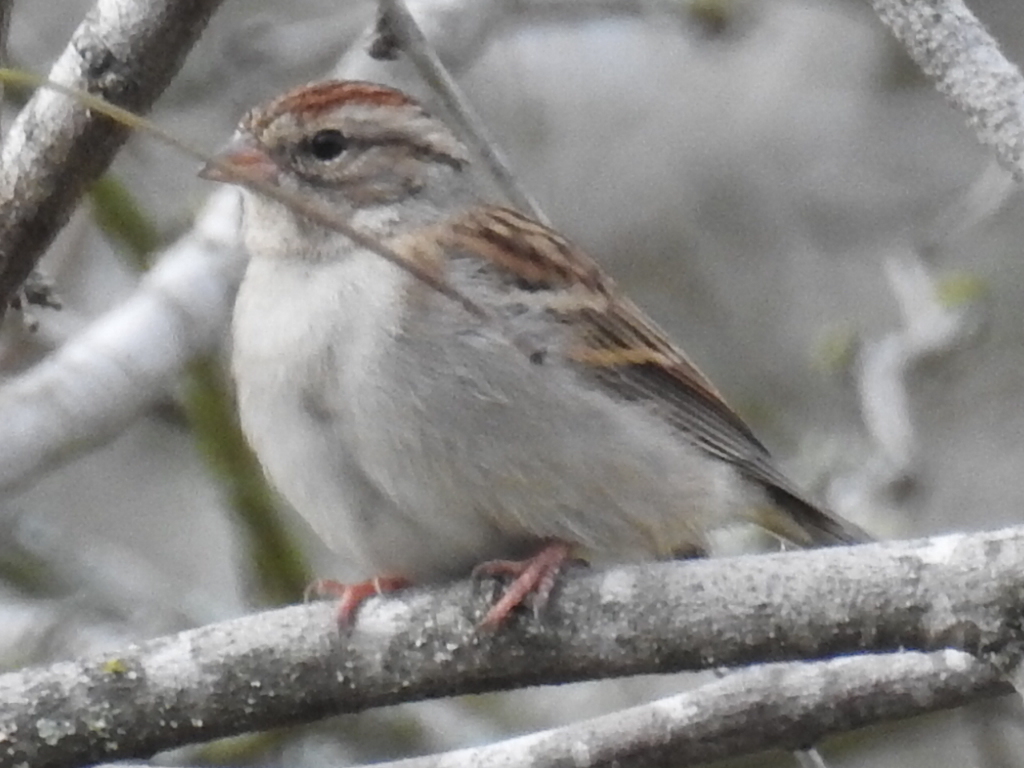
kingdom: Animalia
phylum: Chordata
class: Aves
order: Passeriformes
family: Passerellidae
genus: Spizella
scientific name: Spizella passerina
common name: Chipping sparrow
